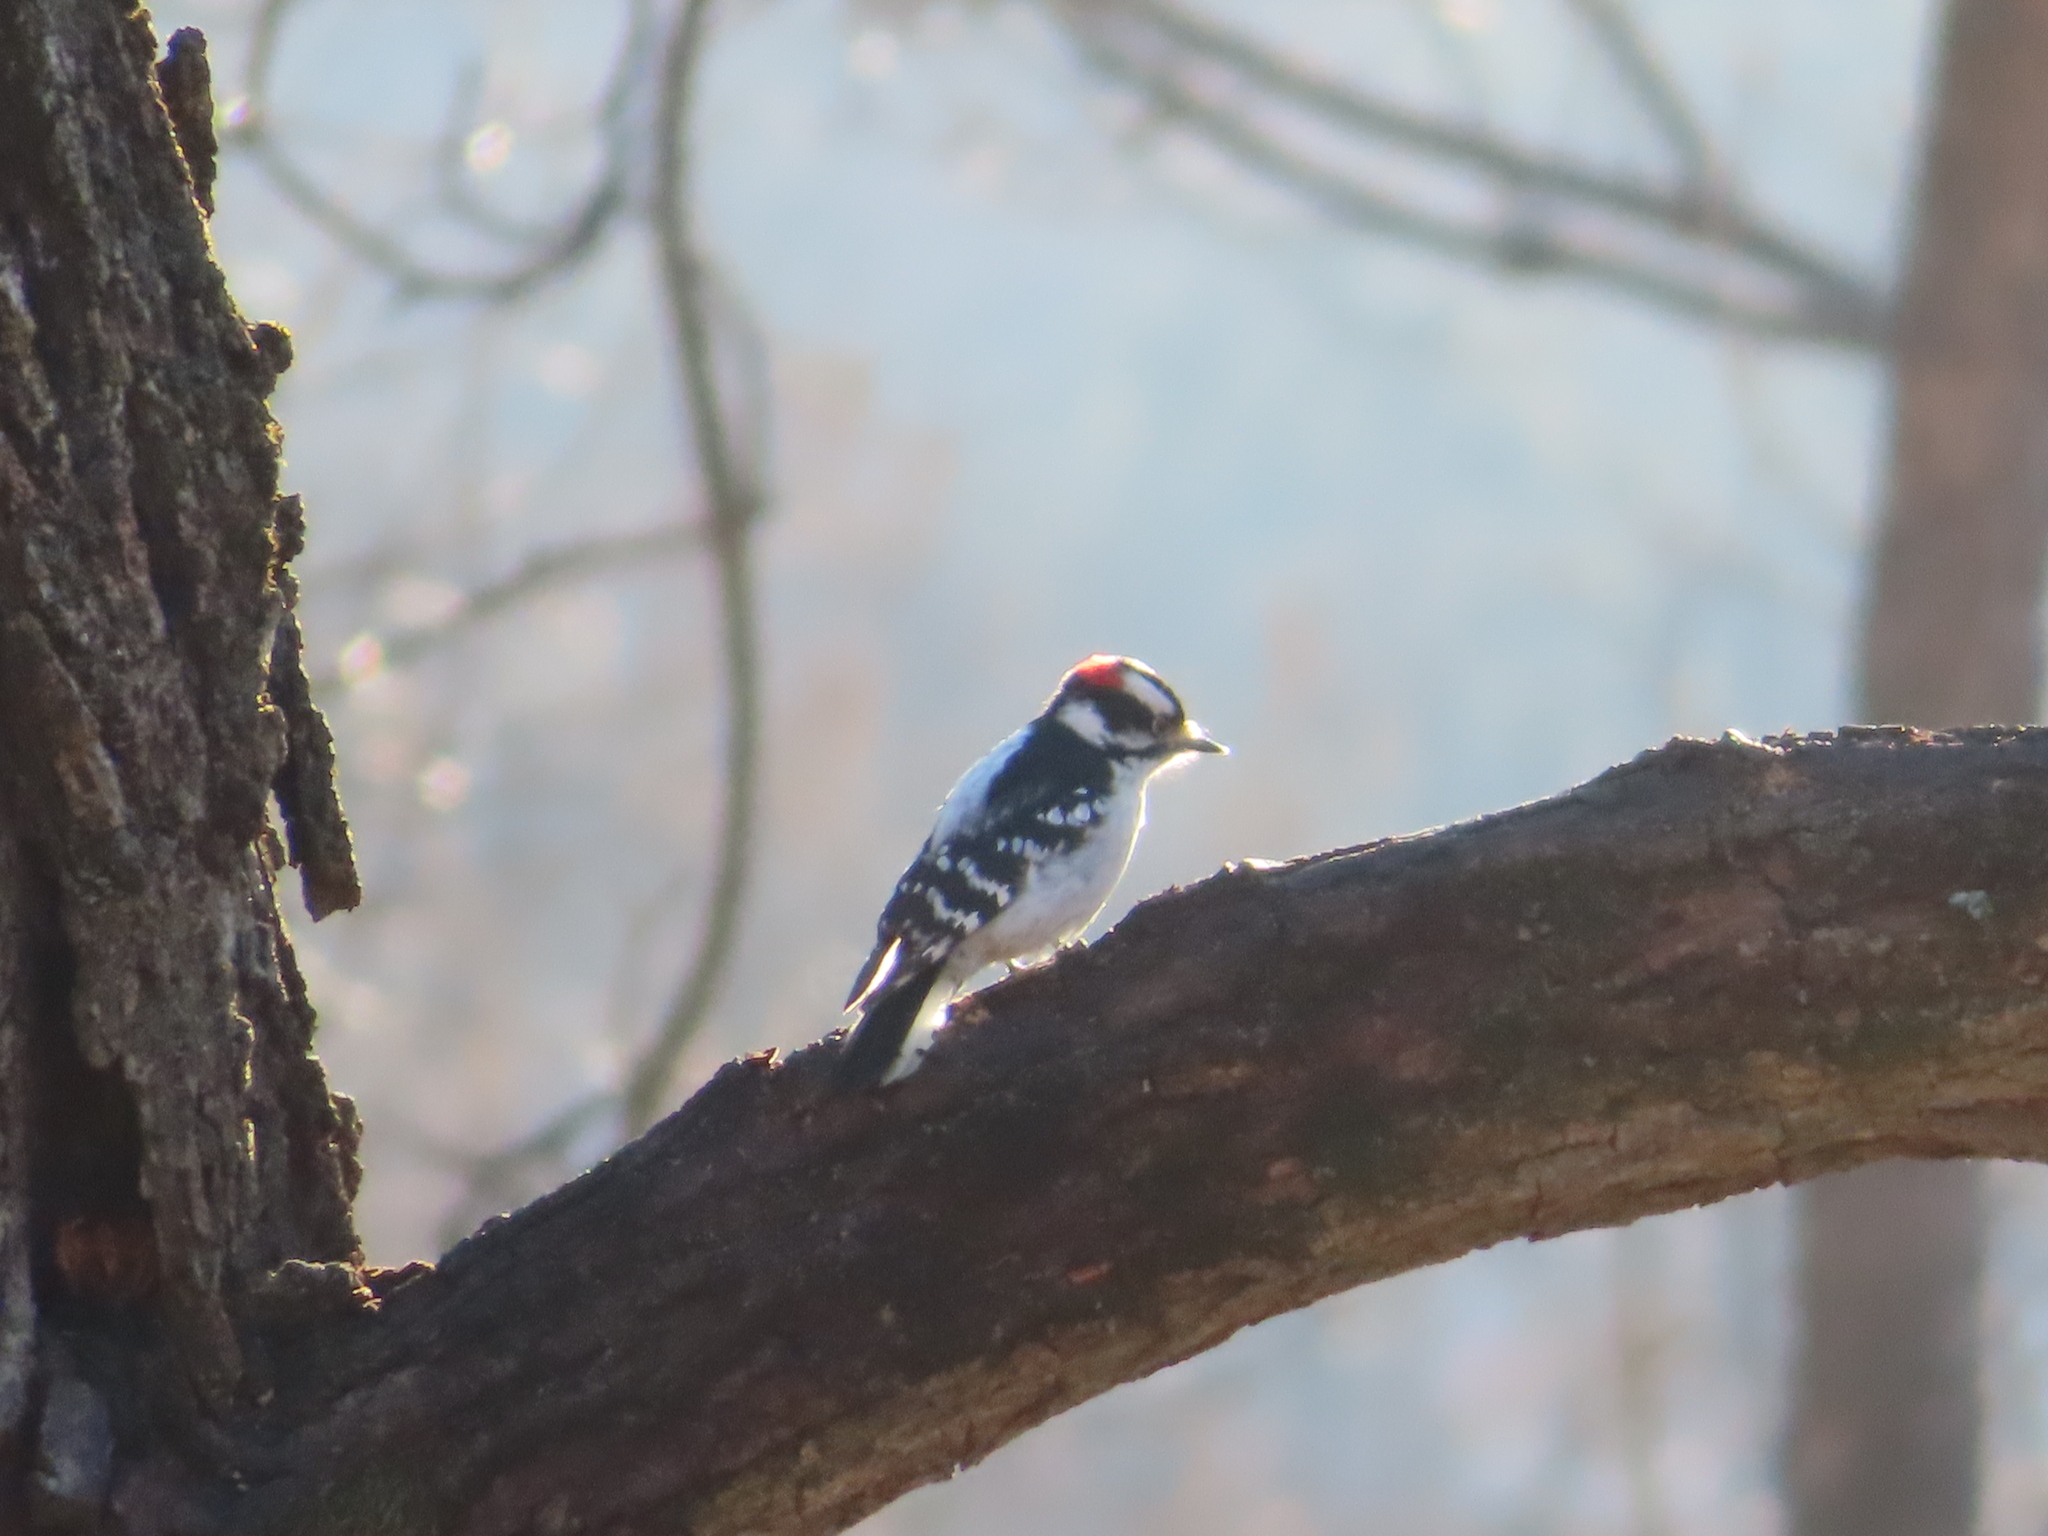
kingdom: Animalia
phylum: Chordata
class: Aves
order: Piciformes
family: Picidae
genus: Dryobates
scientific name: Dryobates pubescens
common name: Downy woodpecker
